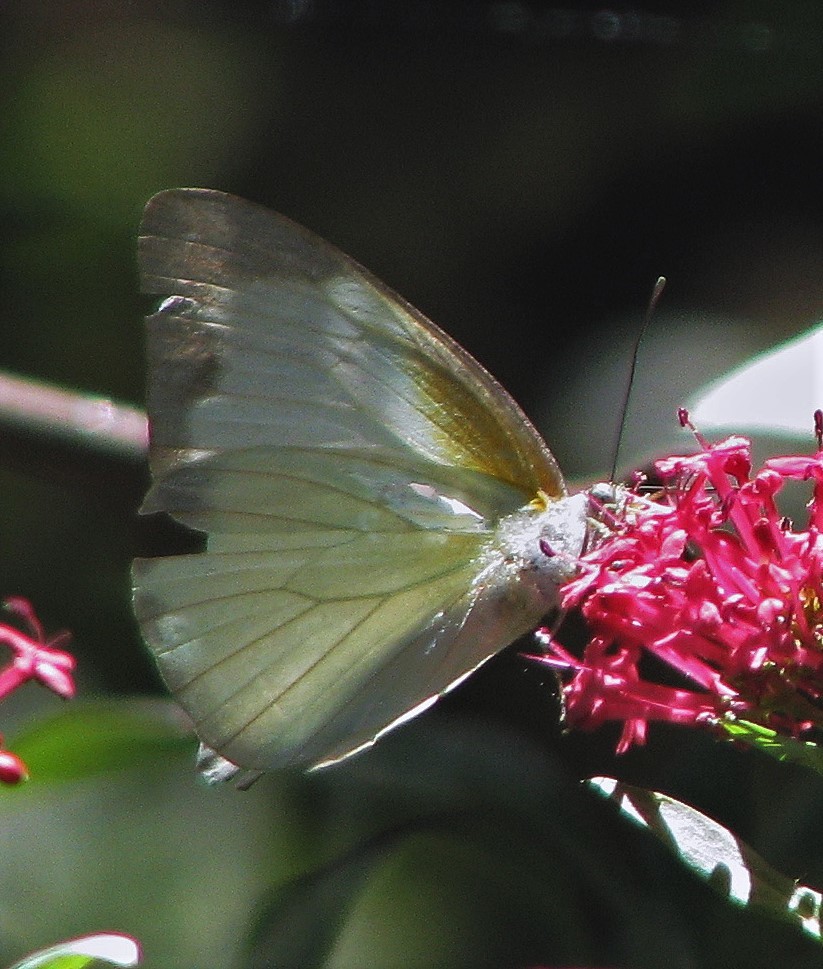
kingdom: Animalia
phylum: Arthropoda
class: Insecta
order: Lepidoptera
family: Pieridae
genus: Glutophrissa
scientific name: Glutophrissa drusilla
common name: Florida white
